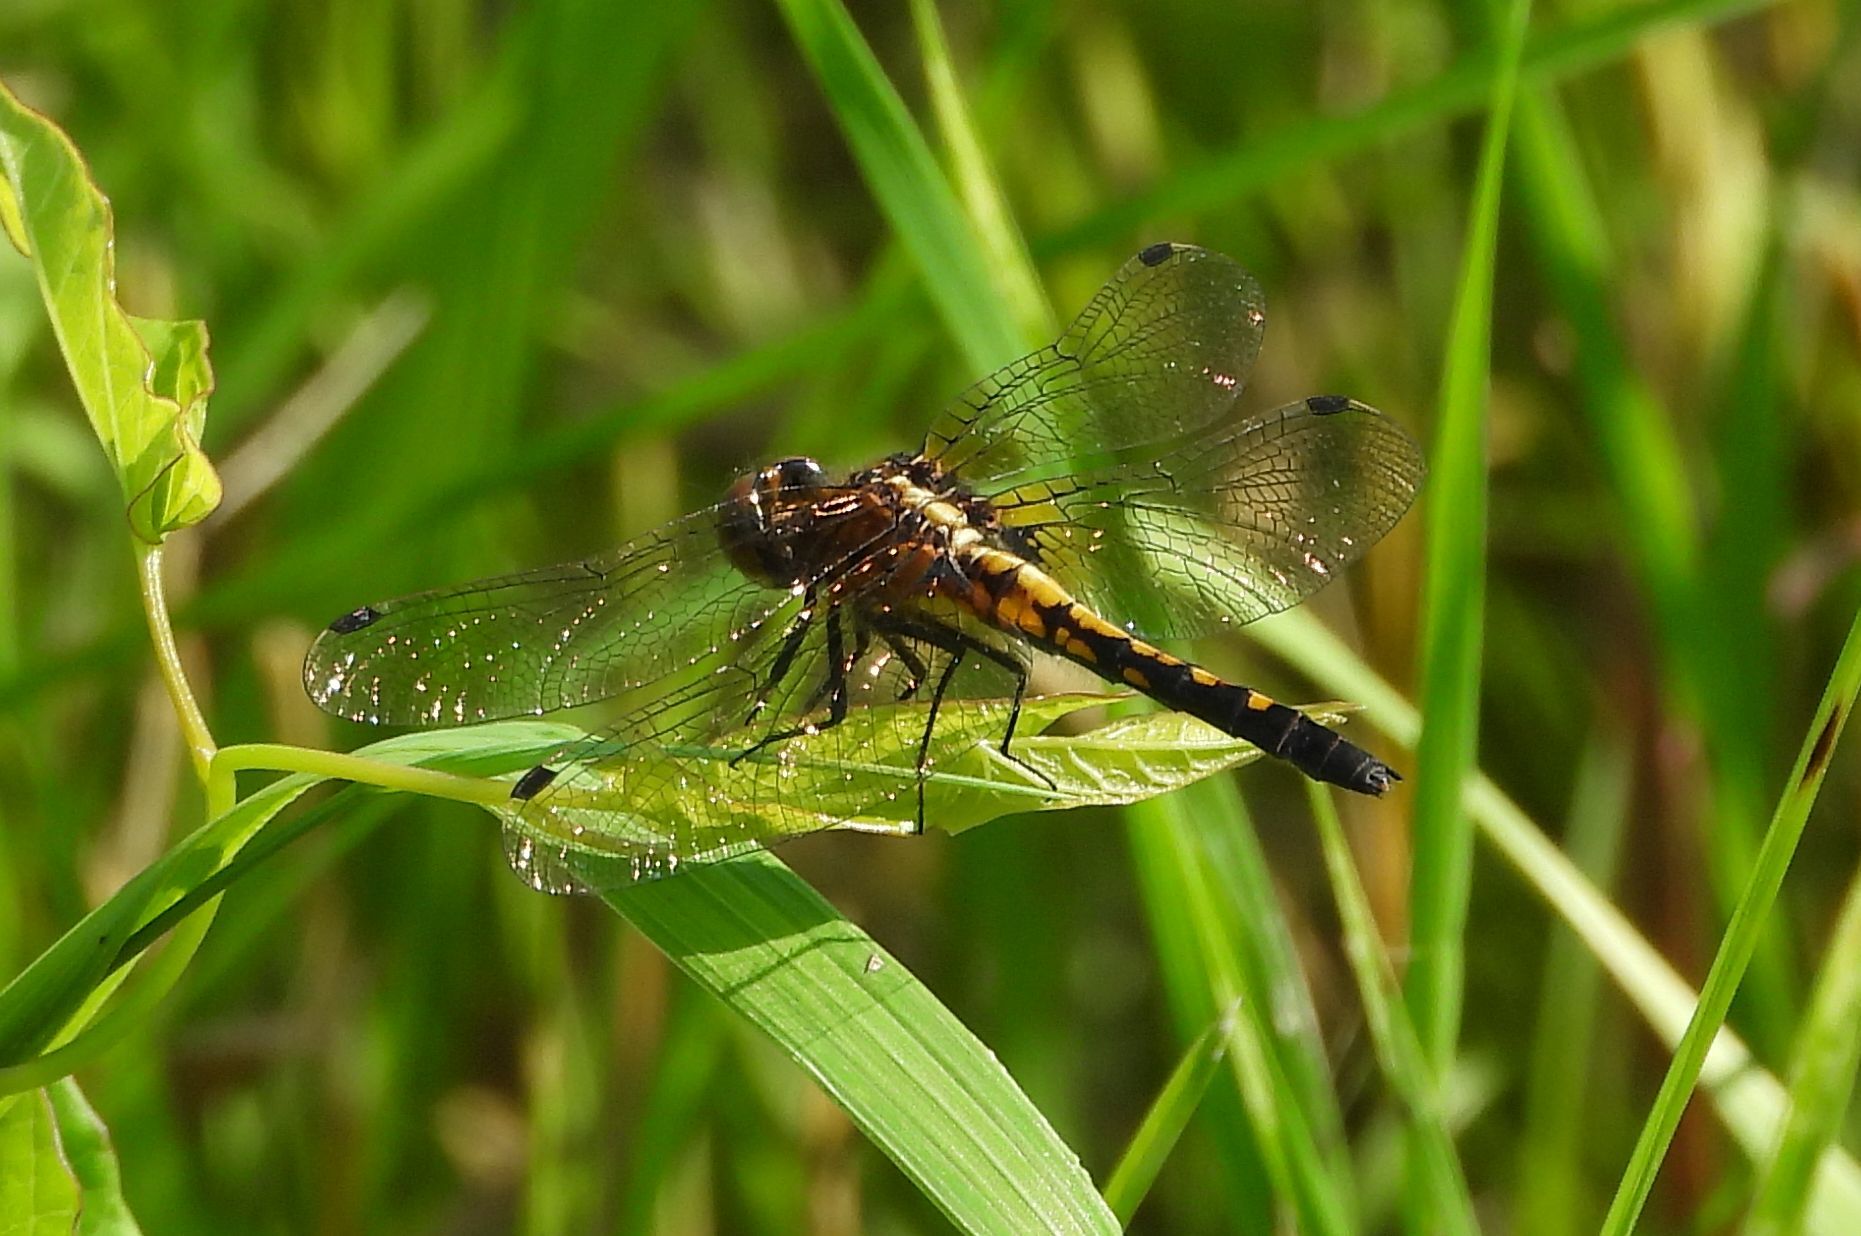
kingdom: Animalia
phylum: Arthropoda
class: Insecta
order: Odonata
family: Libellulidae
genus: Leucorrhinia
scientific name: Leucorrhinia intacta
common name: Dot-tailed whiteface
